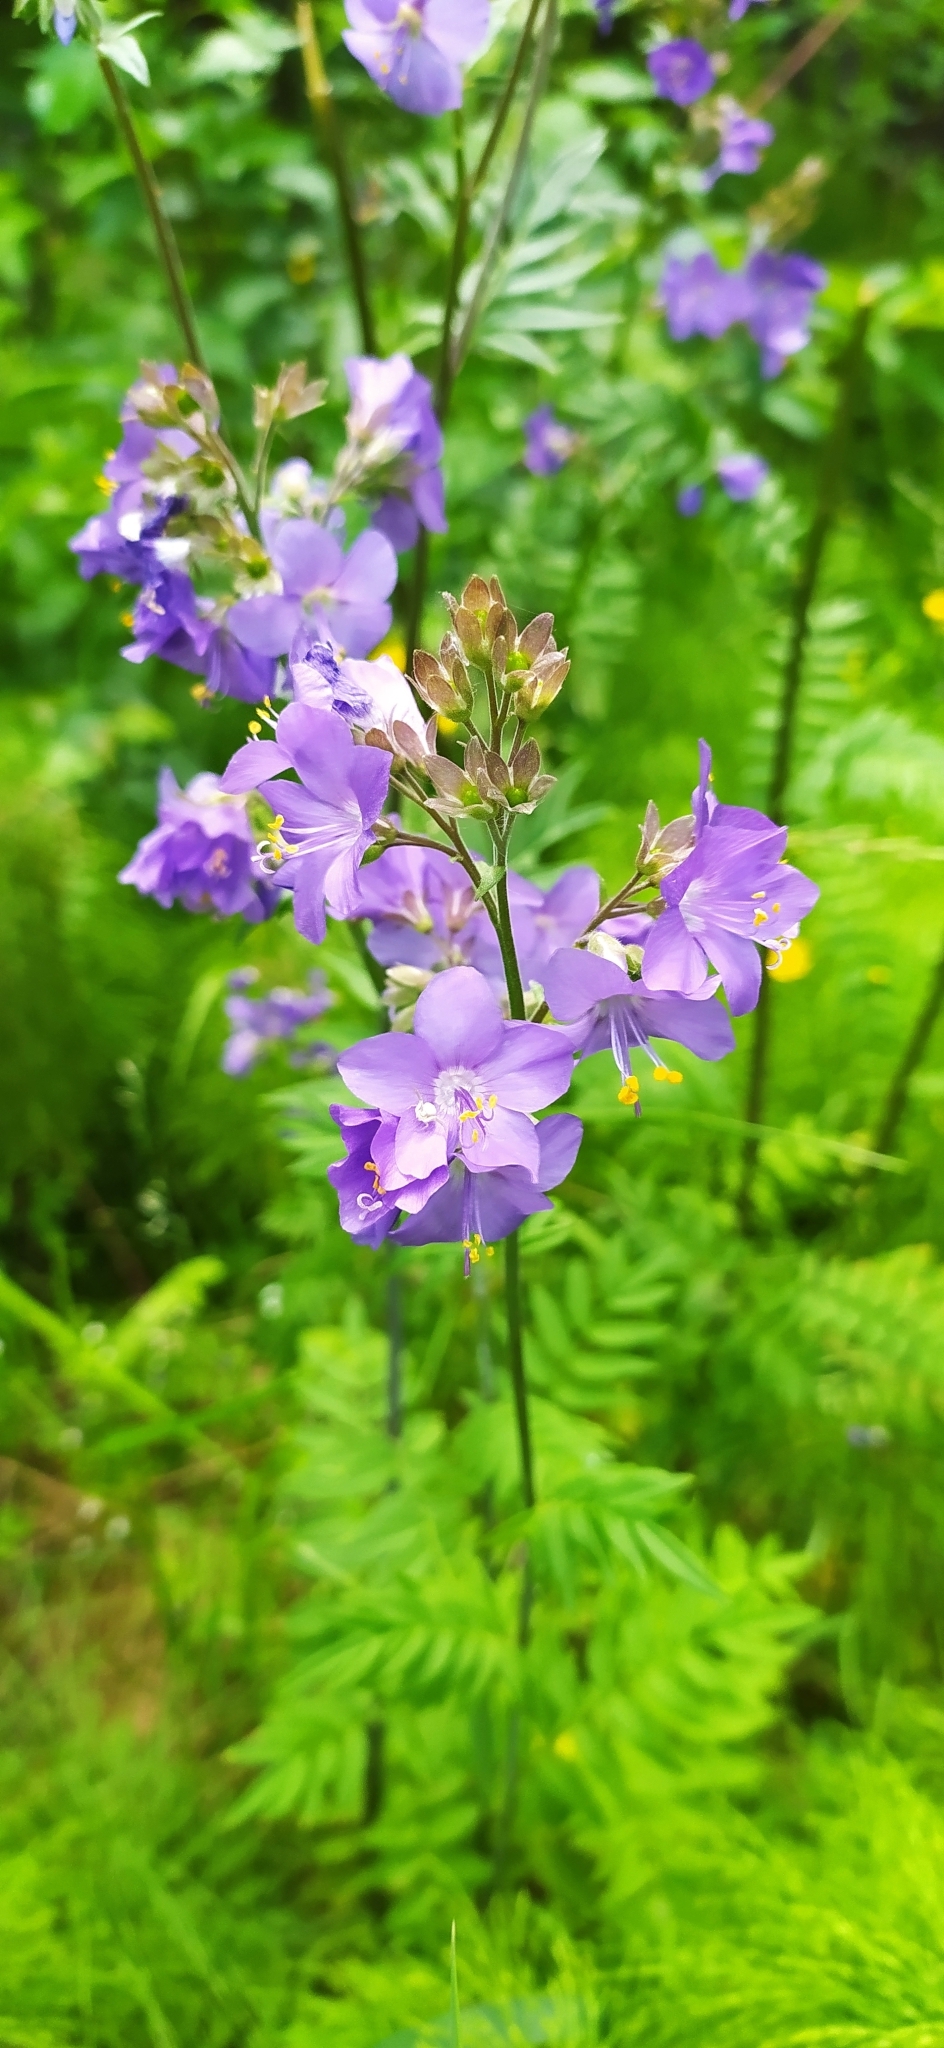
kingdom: Plantae
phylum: Tracheophyta
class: Magnoliopsida
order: Ericales
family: Polemoniaceae
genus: Polemonium
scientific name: Polemonium caeruleum
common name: Jacob's-ladder
